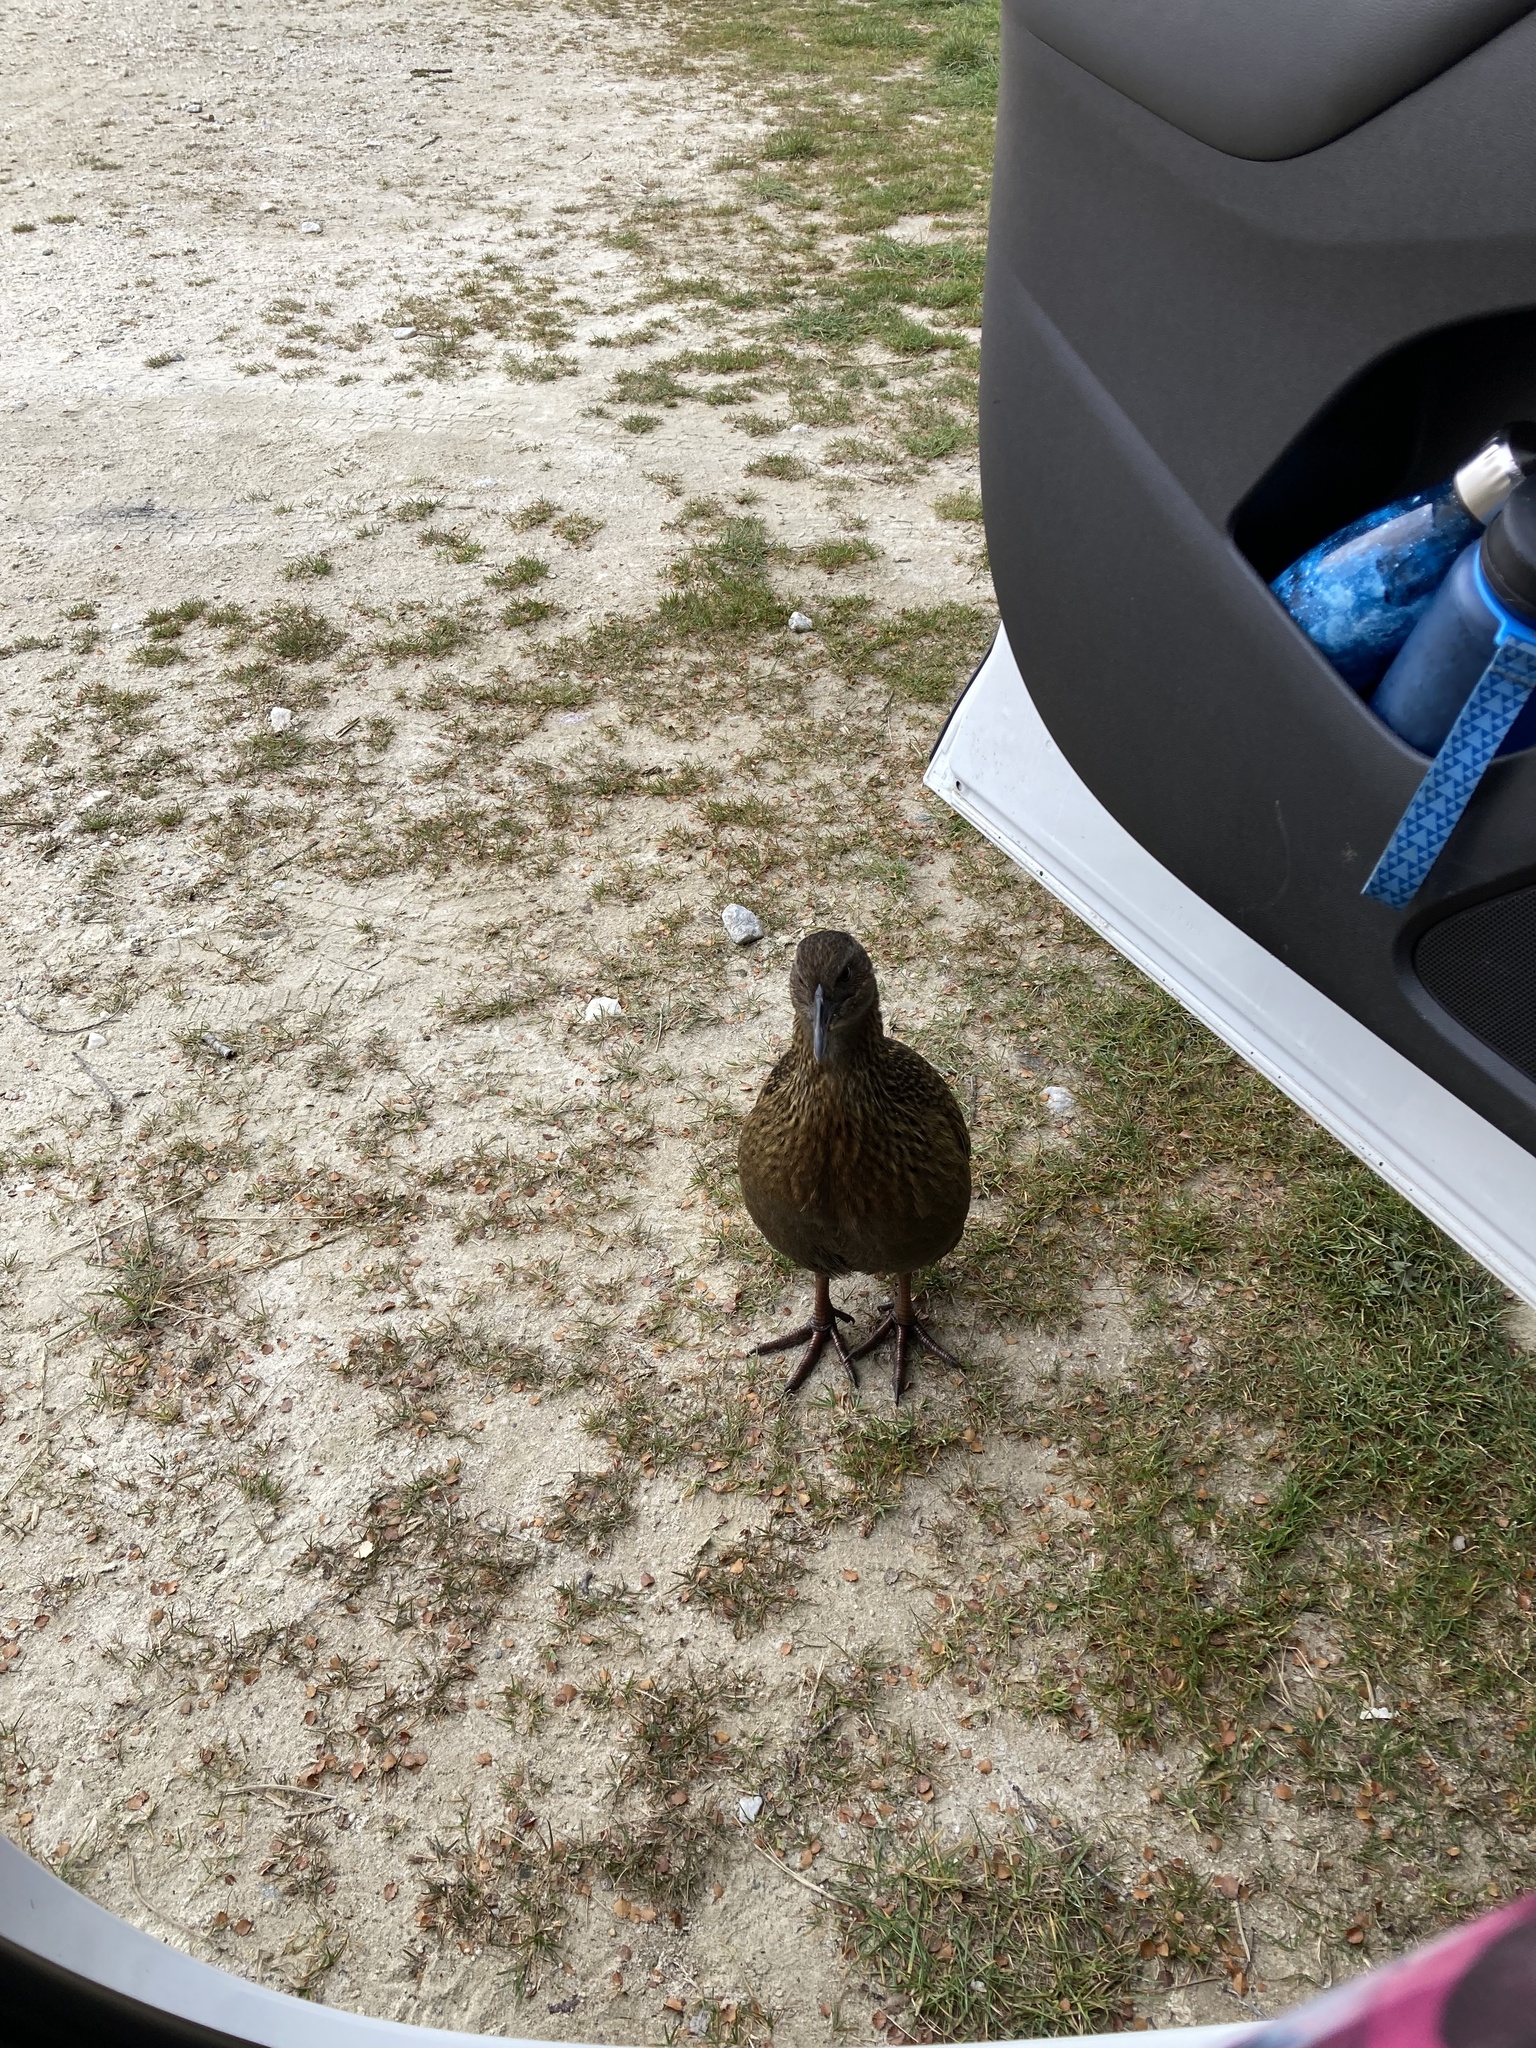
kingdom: Animalia
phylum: Chordata
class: Aves
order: Gruiformes
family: Rallidae
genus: Gallirallus
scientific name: Gallirallus australis
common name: Weka
